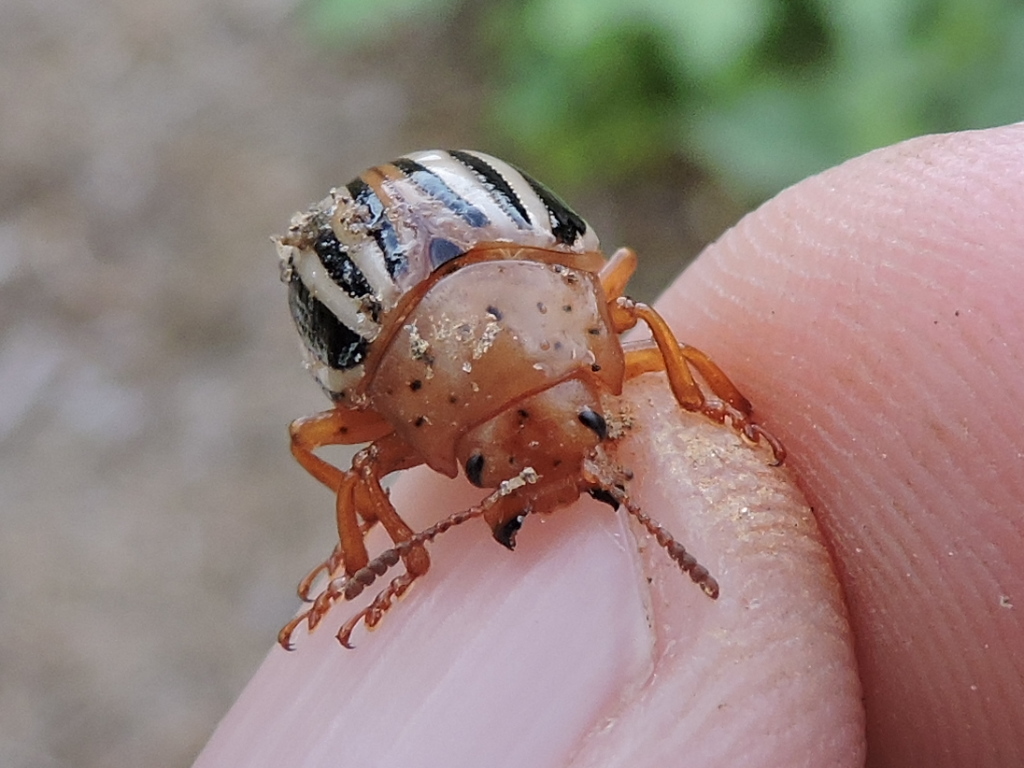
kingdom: Animalia
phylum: Arthropoda
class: Insecta
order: Coleoptera
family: Chrysomelidae
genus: Leptinotarsa
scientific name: Leptinotarsa juncta
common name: False potato beetle
